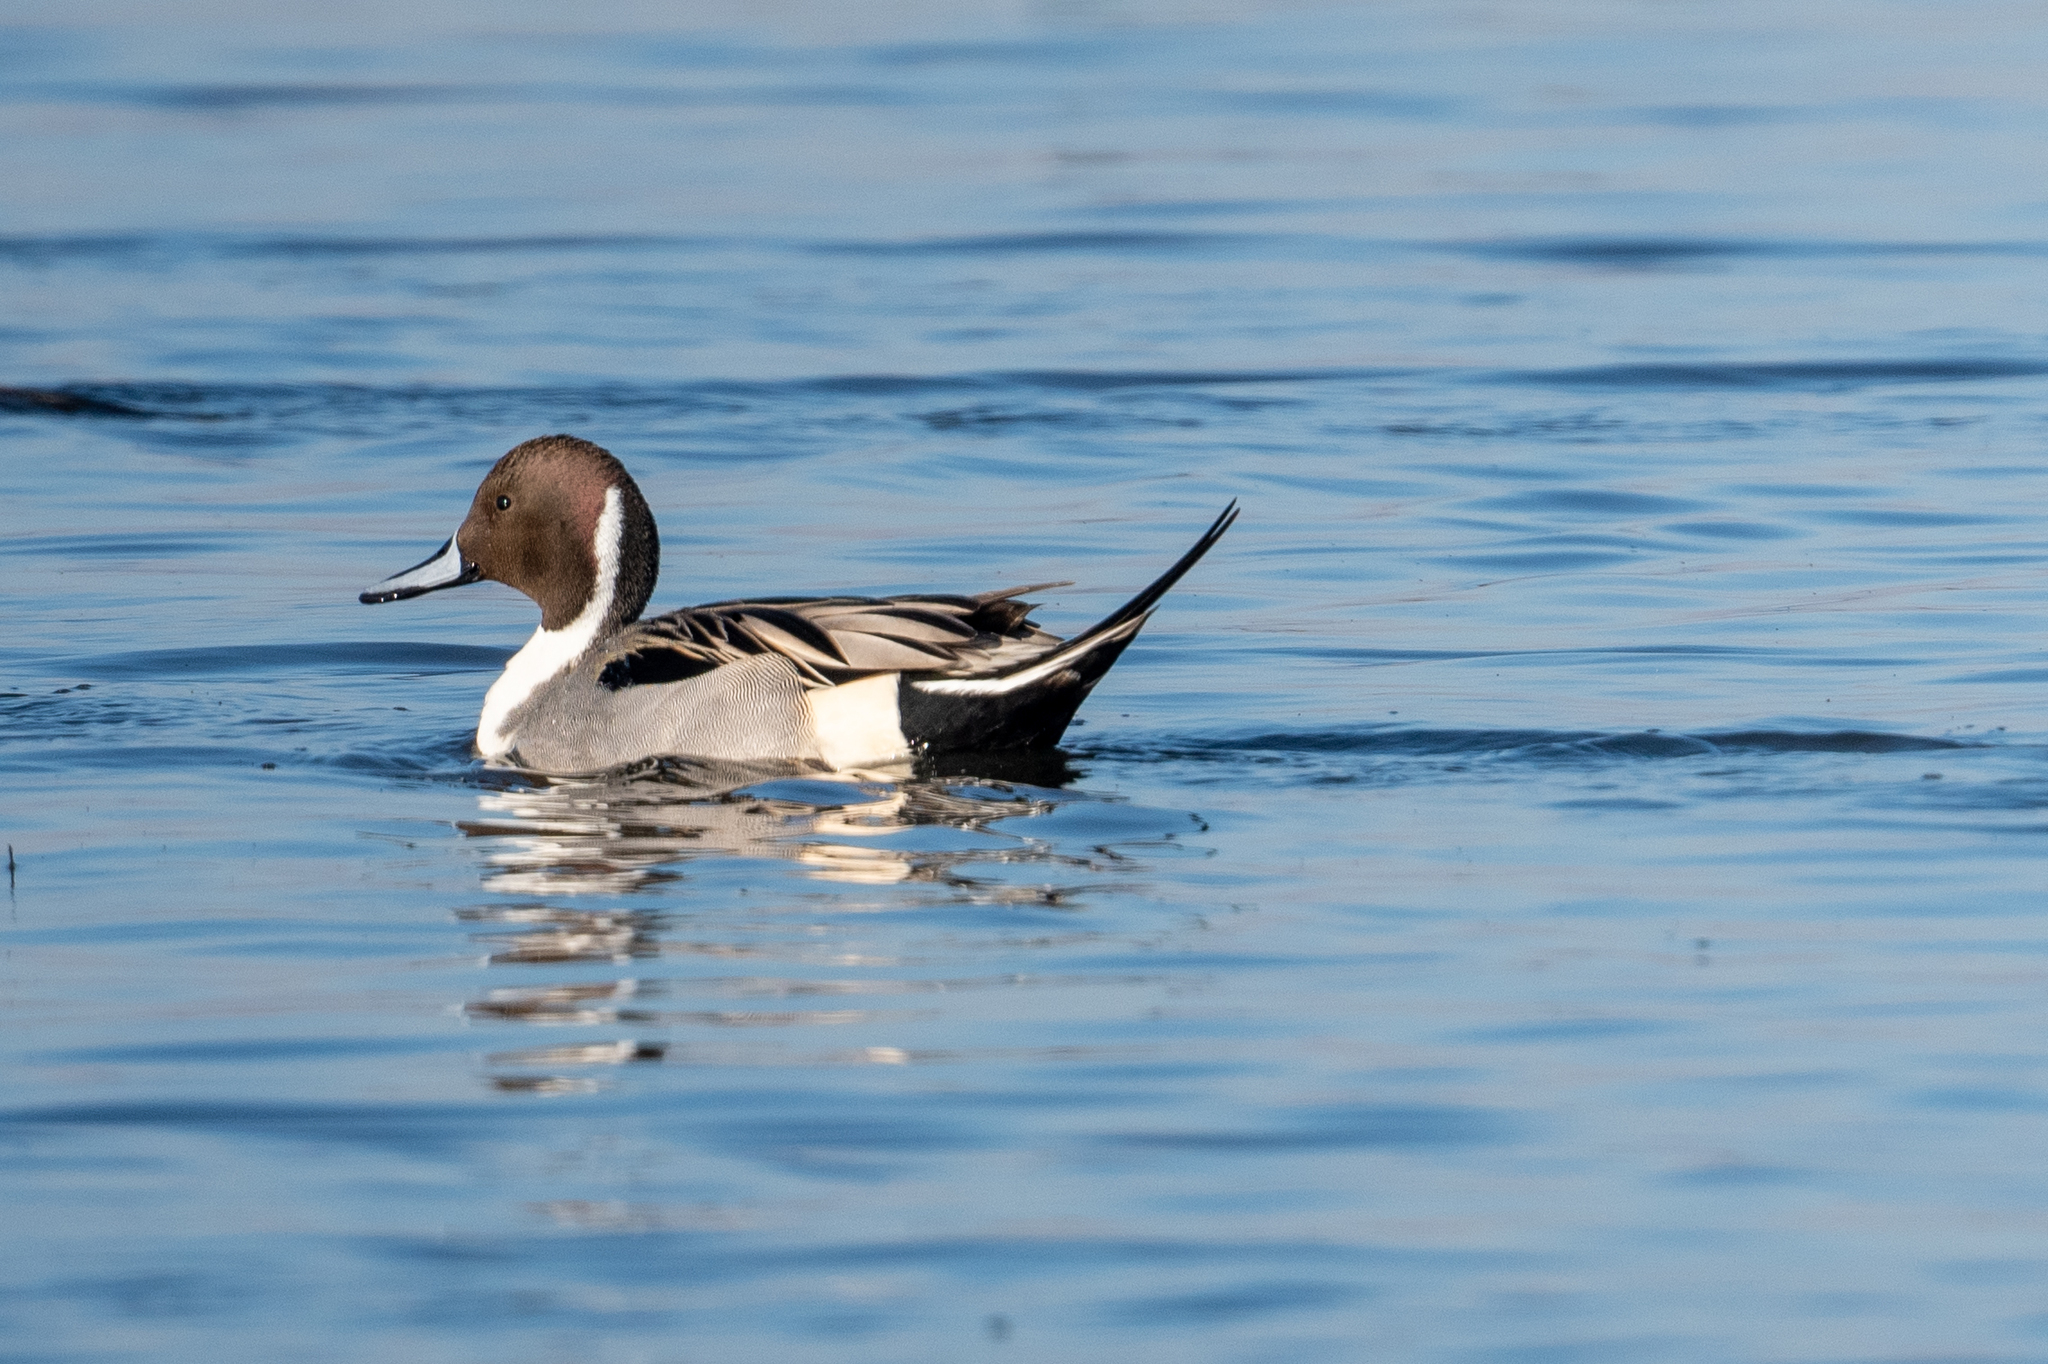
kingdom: Animalia
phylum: Chordata
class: Aves
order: Anseriformes
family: Anatidae
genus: Anas
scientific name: Anas acuta
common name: Northern pintail
